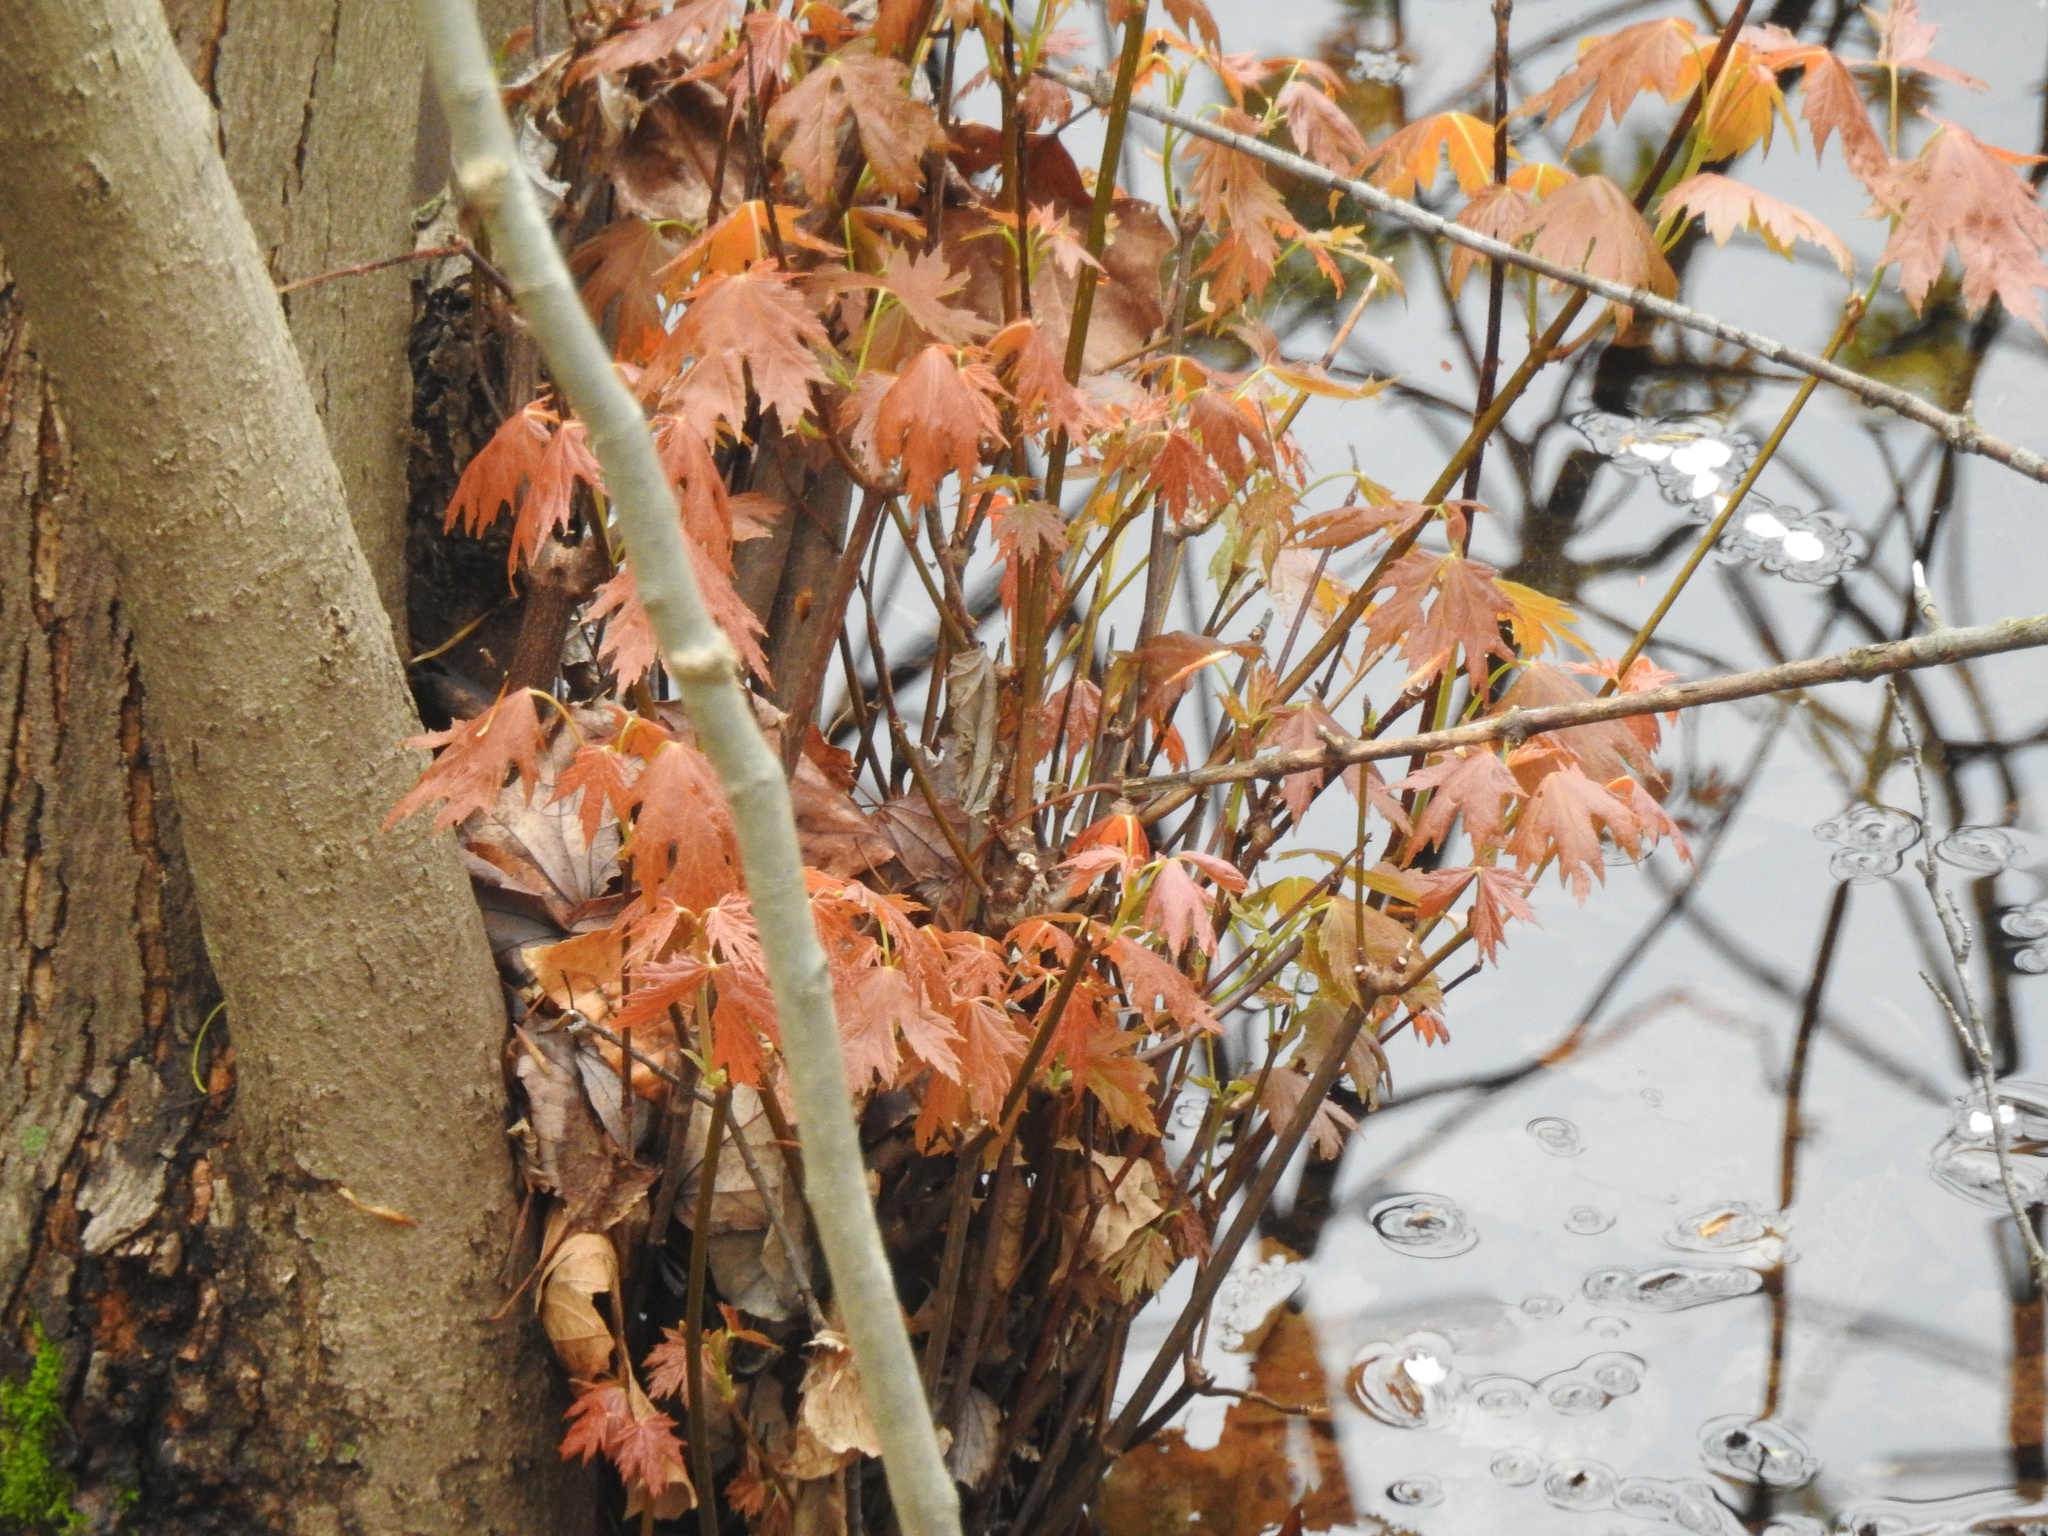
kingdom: Plantae
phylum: Tracheophyta
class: Magnoliopsida
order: Sapindales
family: Sapindaceae
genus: Acer
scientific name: Acer saccharinum
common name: Silver maple
